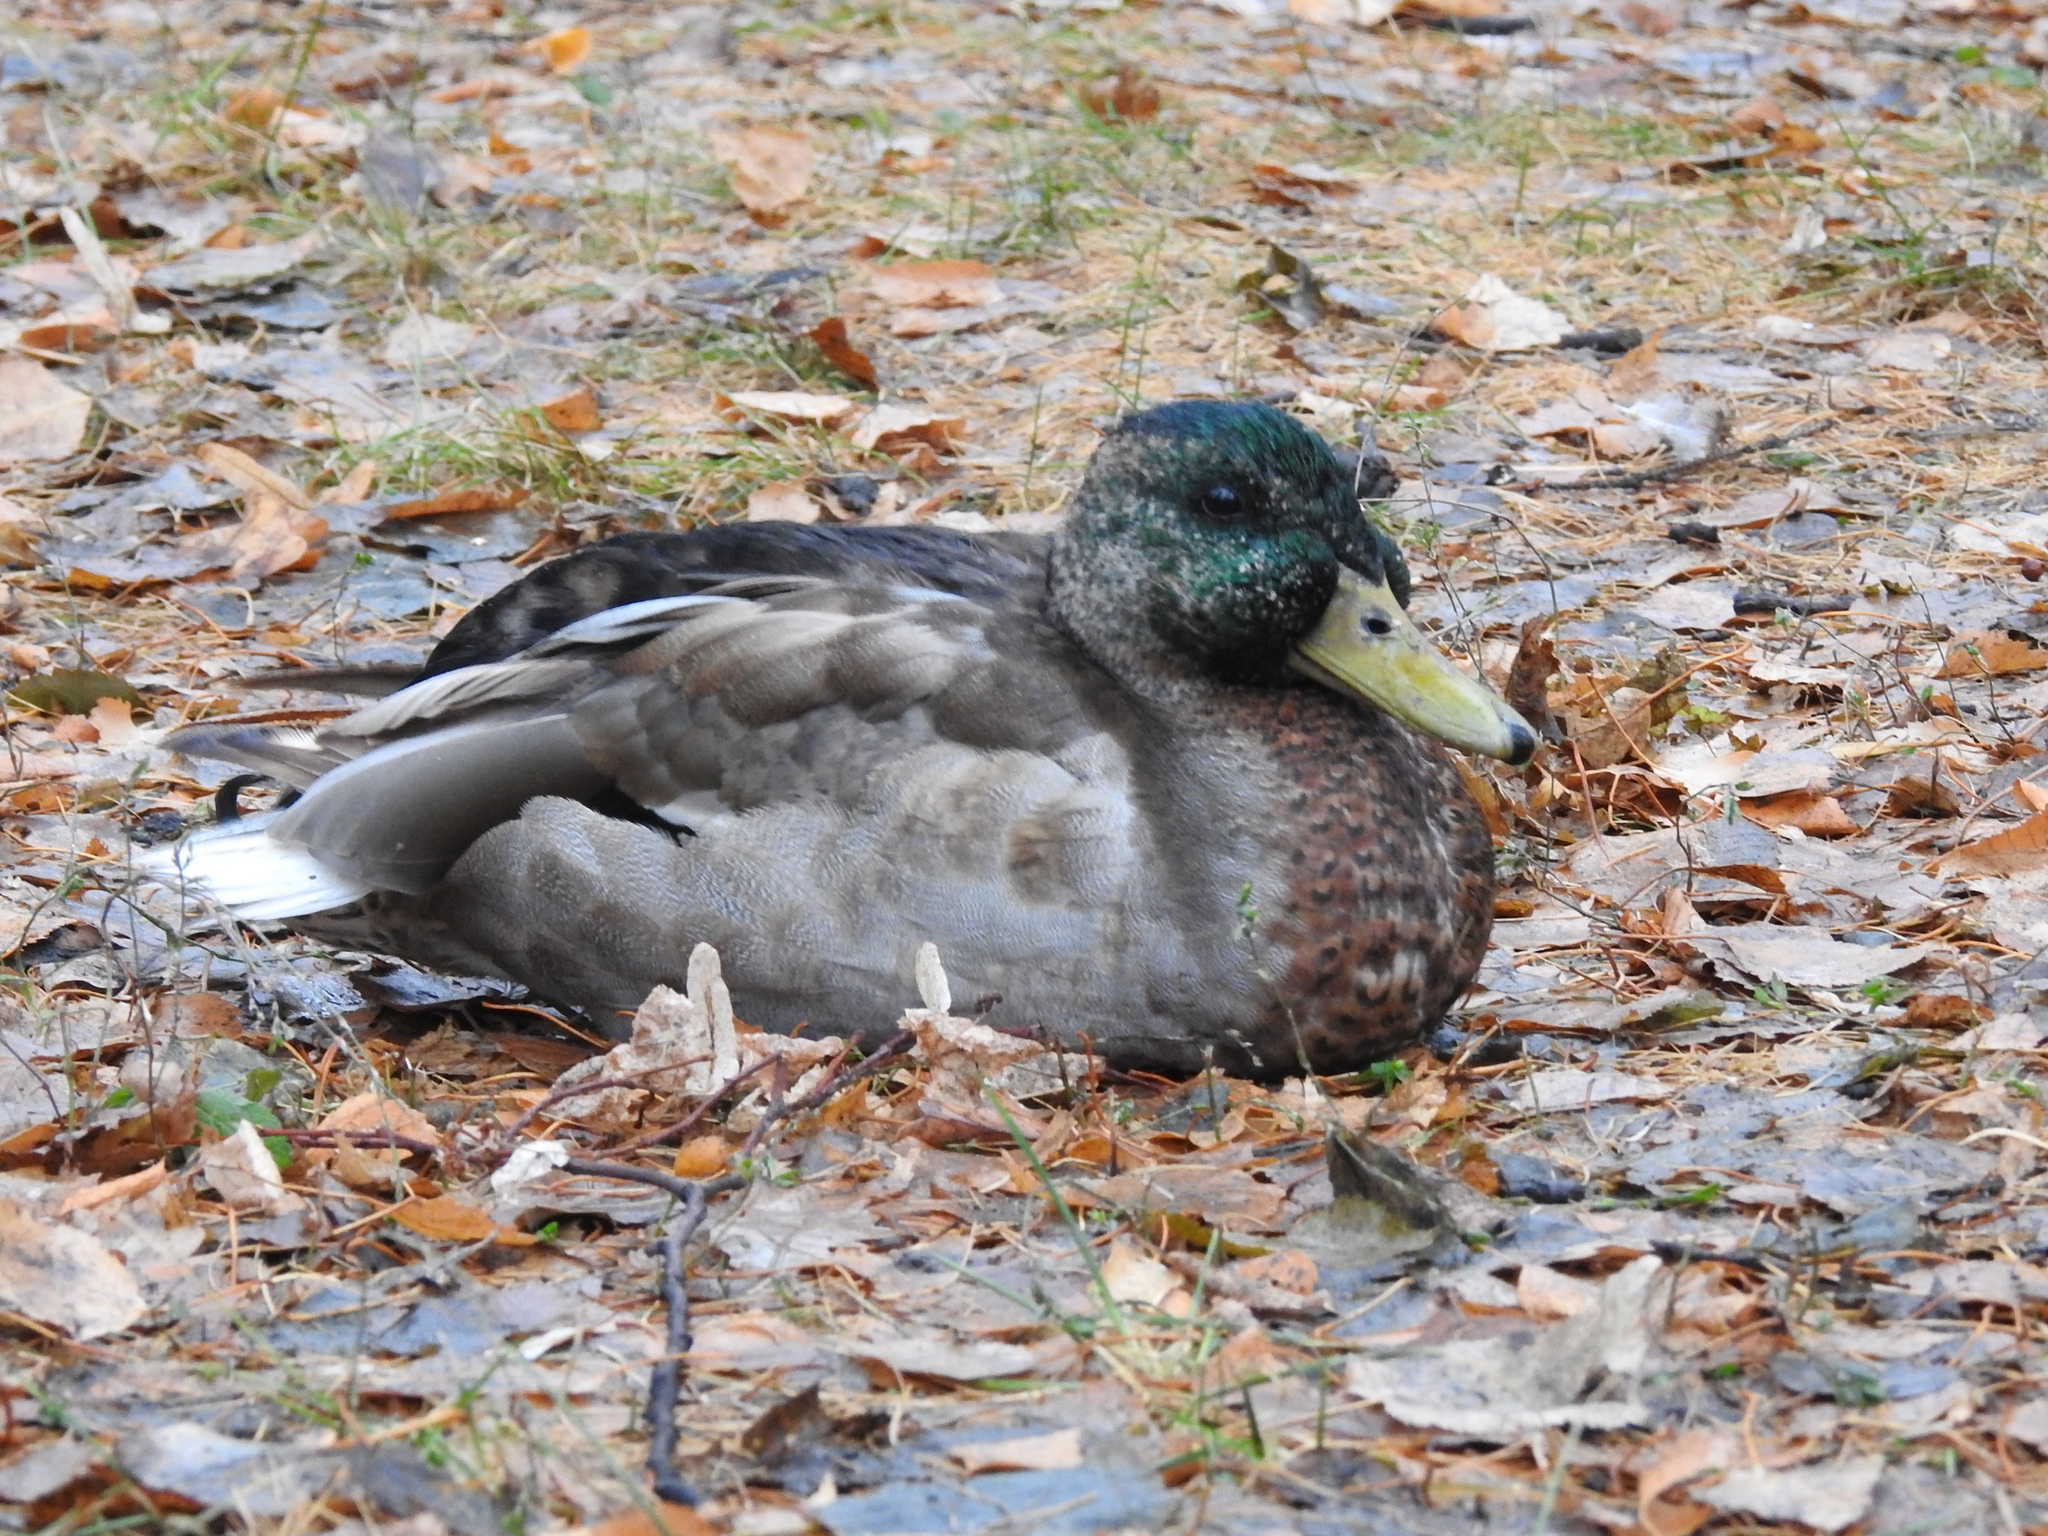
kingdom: Animalia
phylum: Chordata
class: Aves
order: Anseriformes
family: Anatidae
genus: Anas
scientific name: Anas platyrhynchos
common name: Mallard
